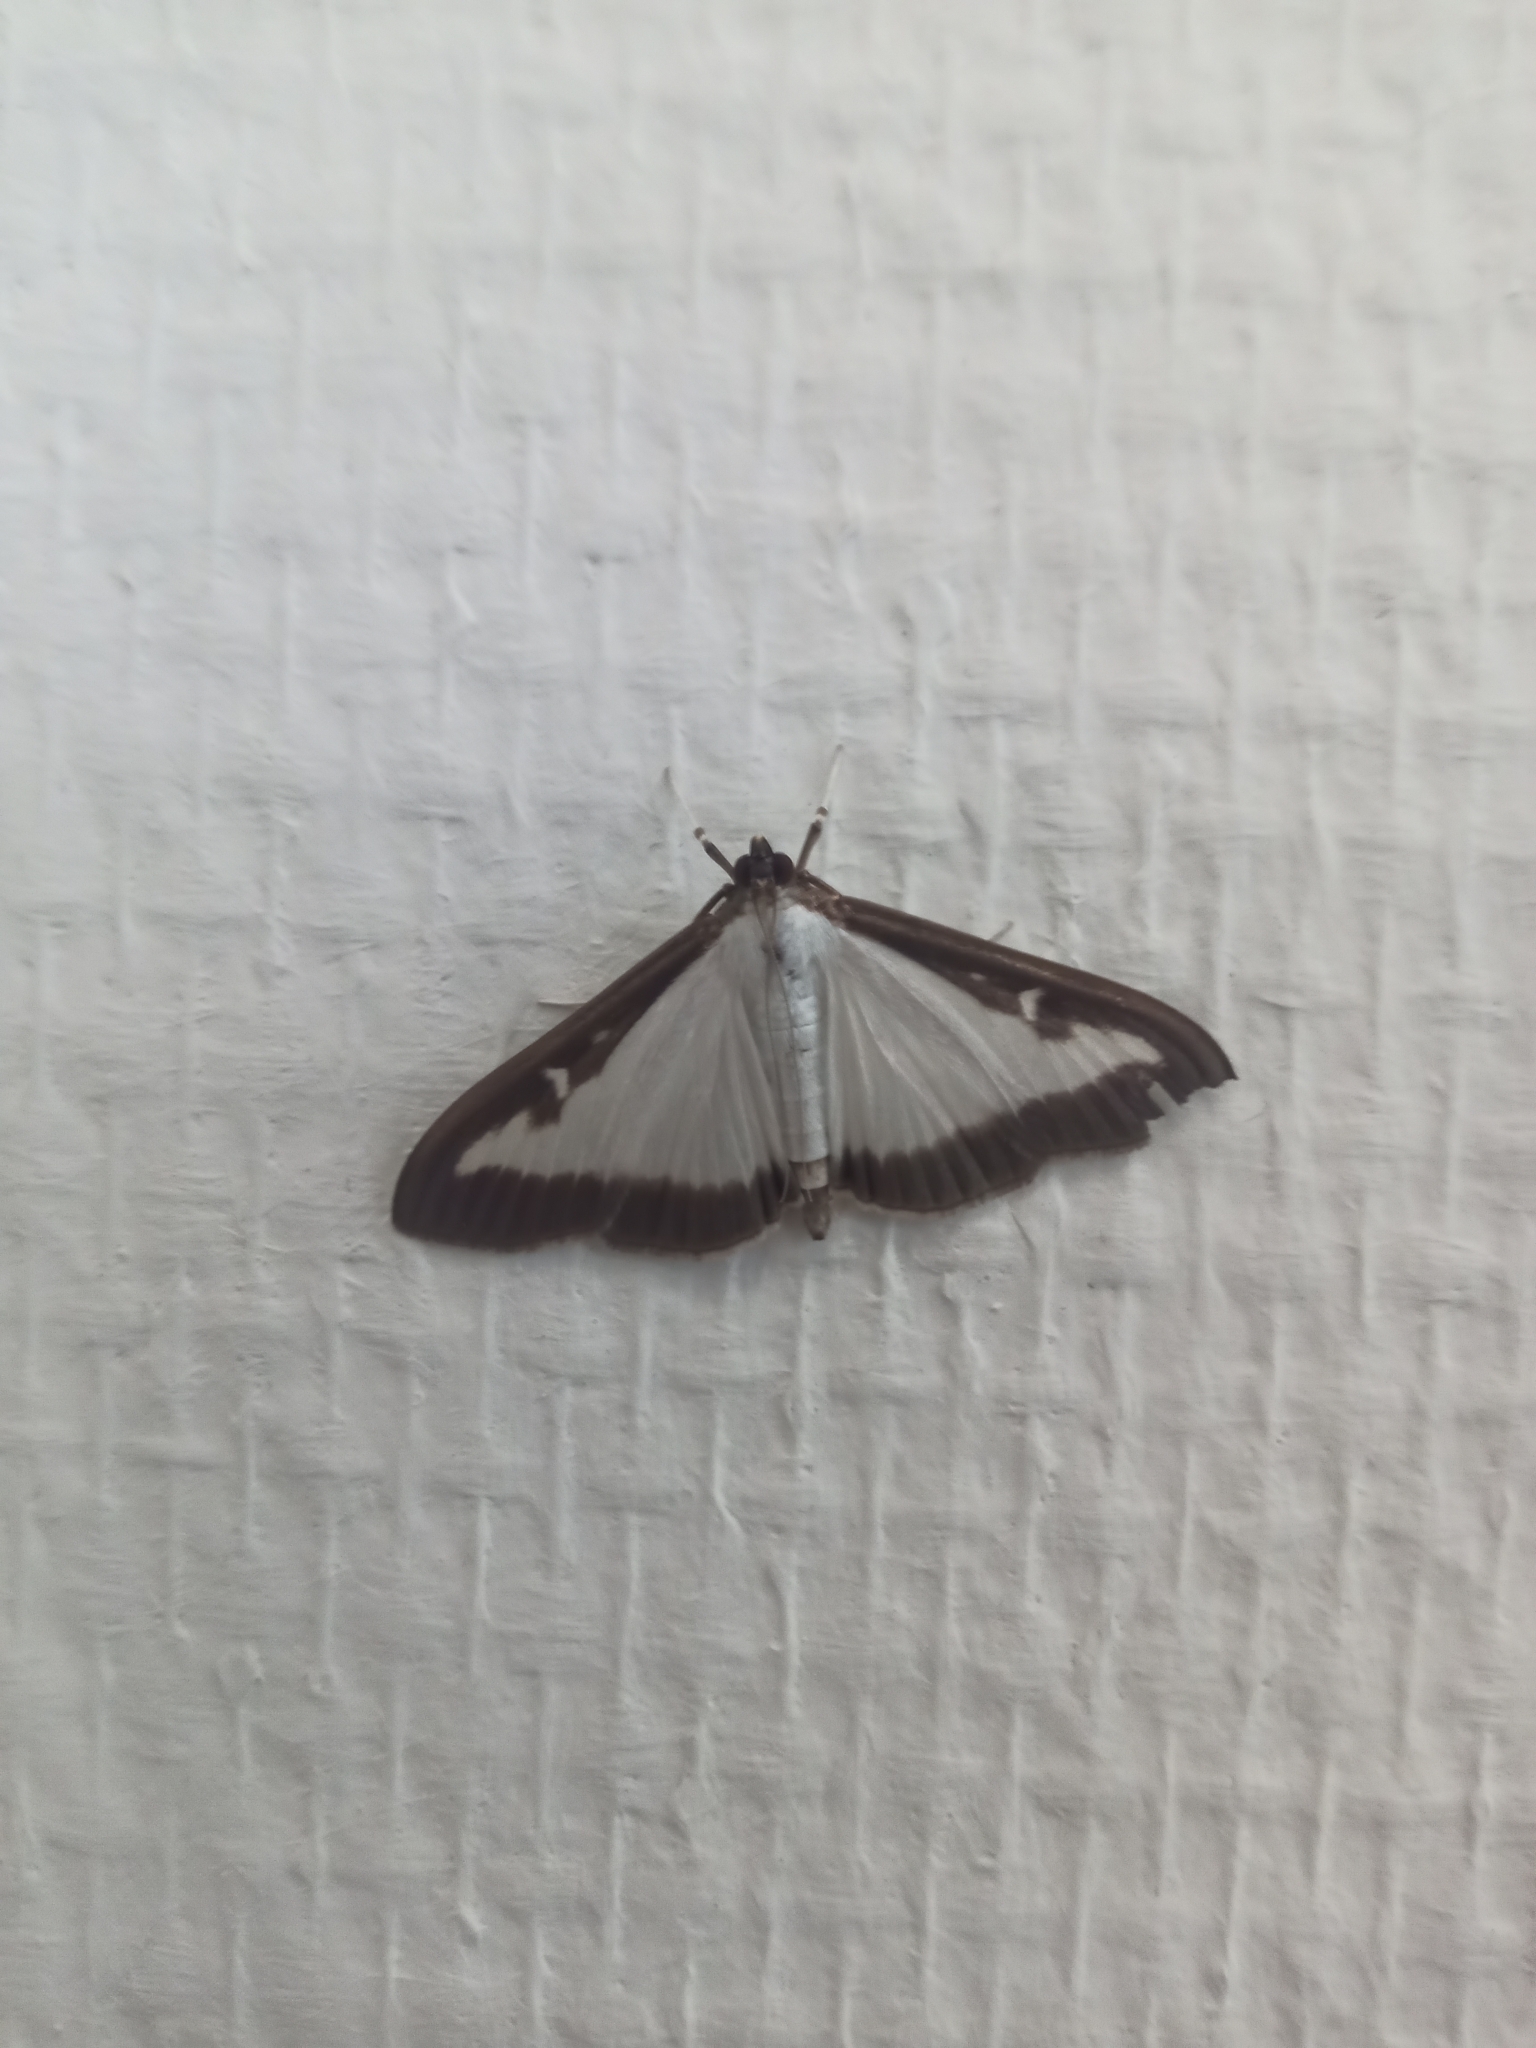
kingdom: Animalia
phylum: Arthropoda
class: Insecta
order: Lepidoptera
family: Crambidae
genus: Cydalima
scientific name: Cydalima perspectalis
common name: Box tree moth
